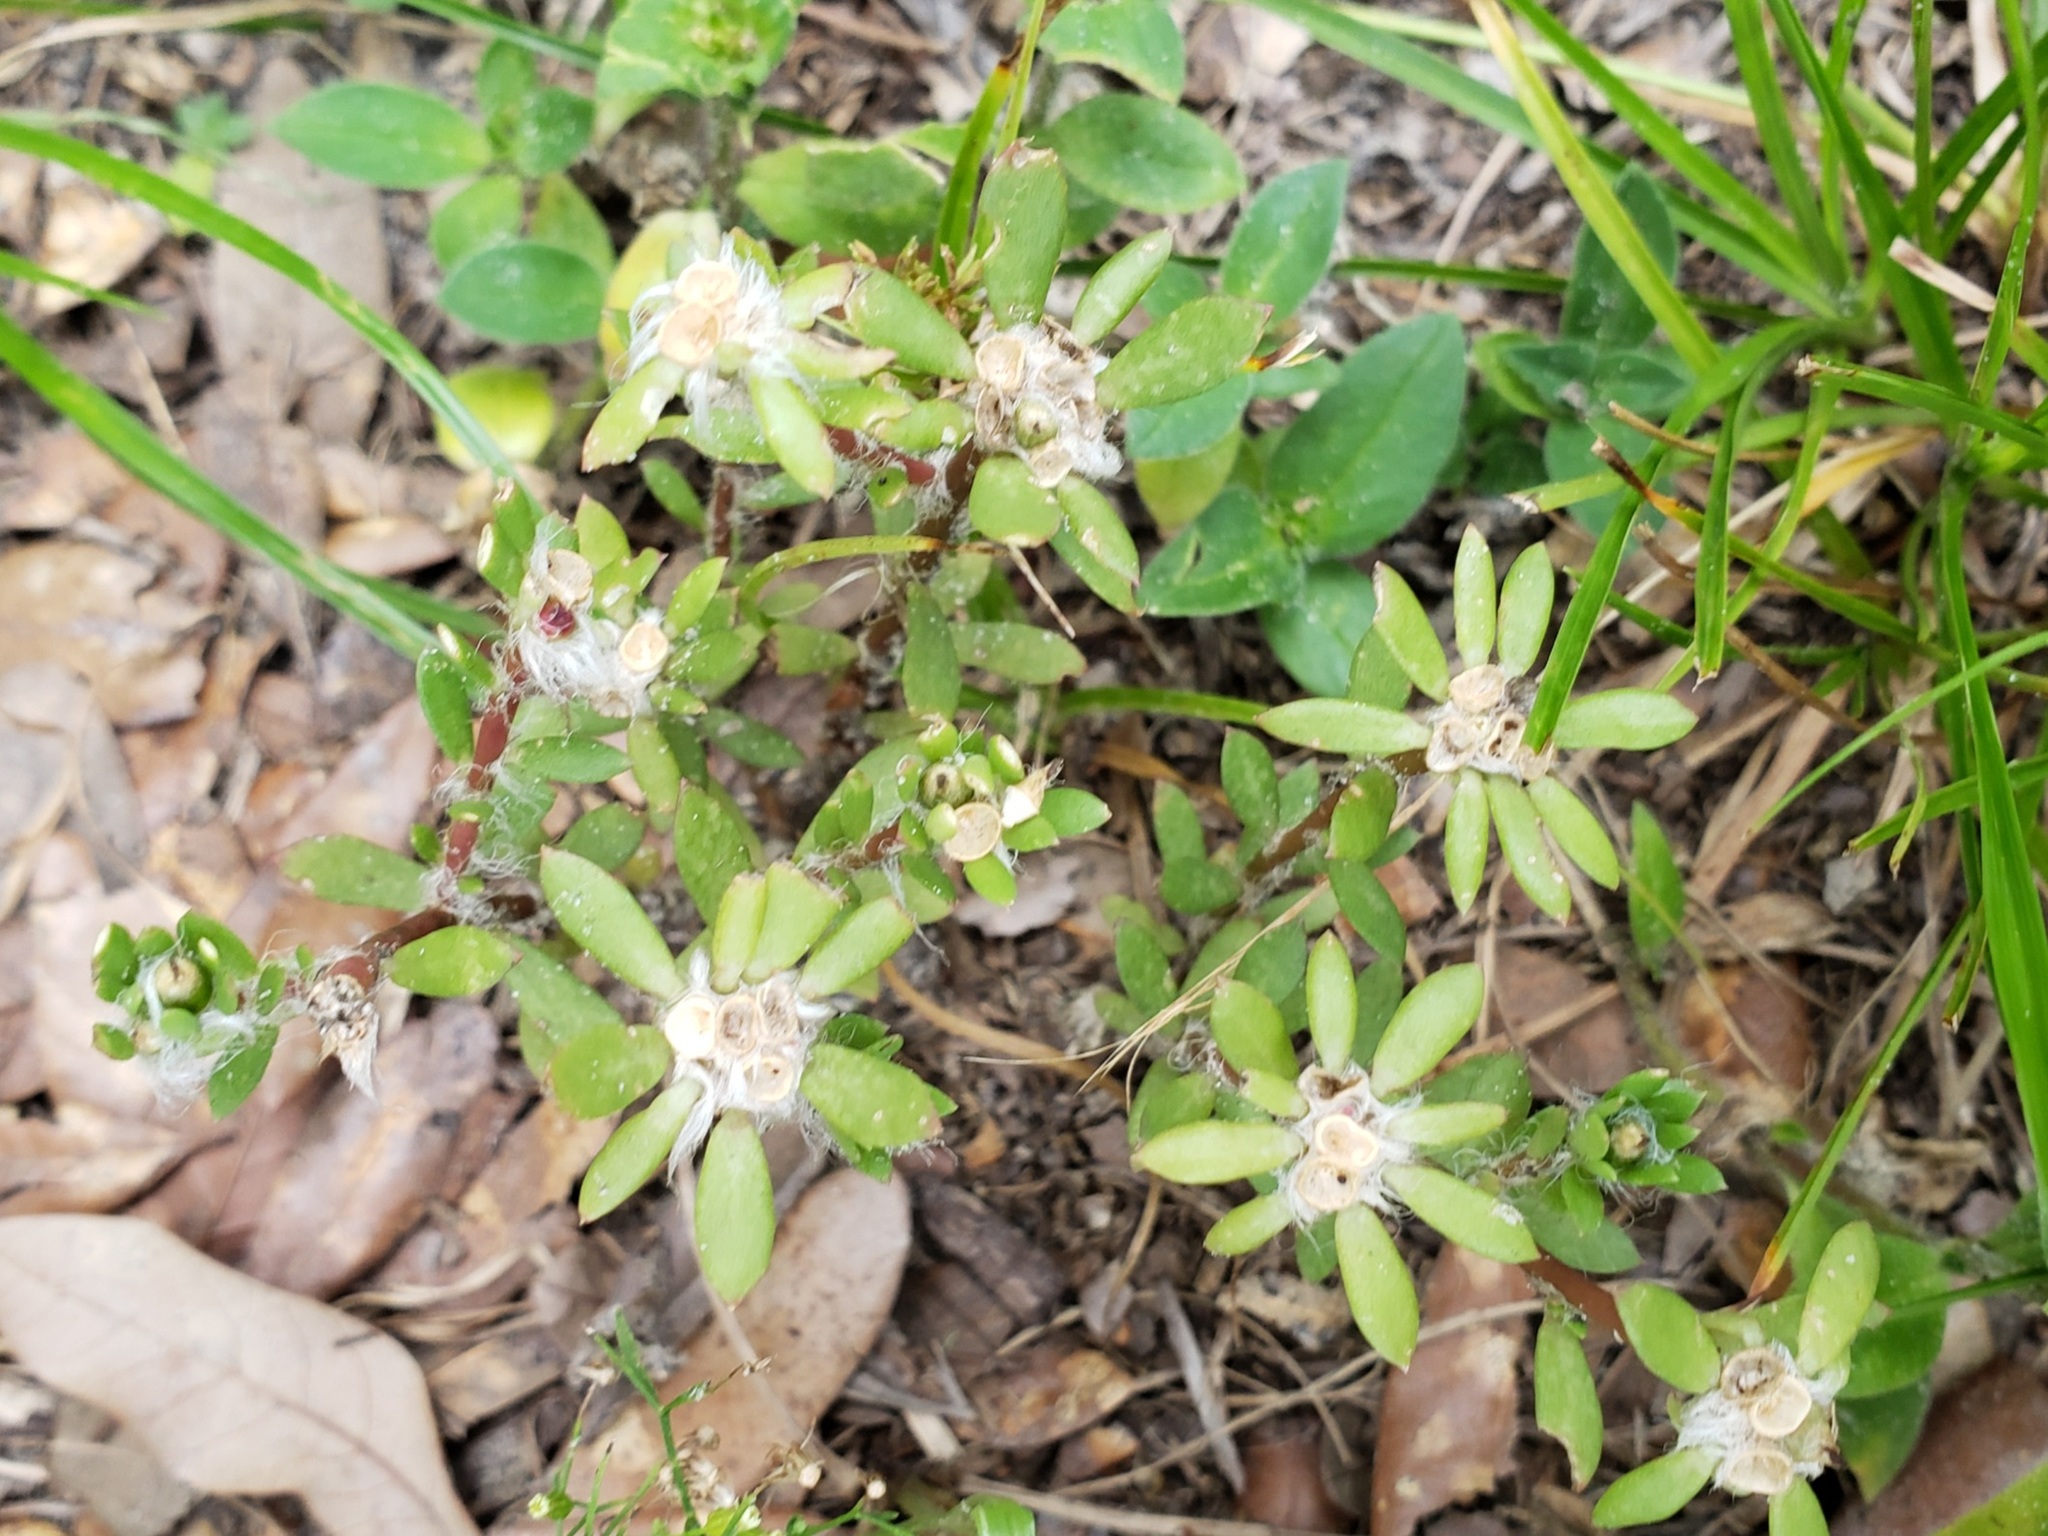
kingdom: Plantae
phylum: Tracheophyta
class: Magnoliopsida
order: Caryophyllales
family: Portulacaceae
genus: Portulaca
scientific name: Portulaca amilis
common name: Paraguayan purslane
